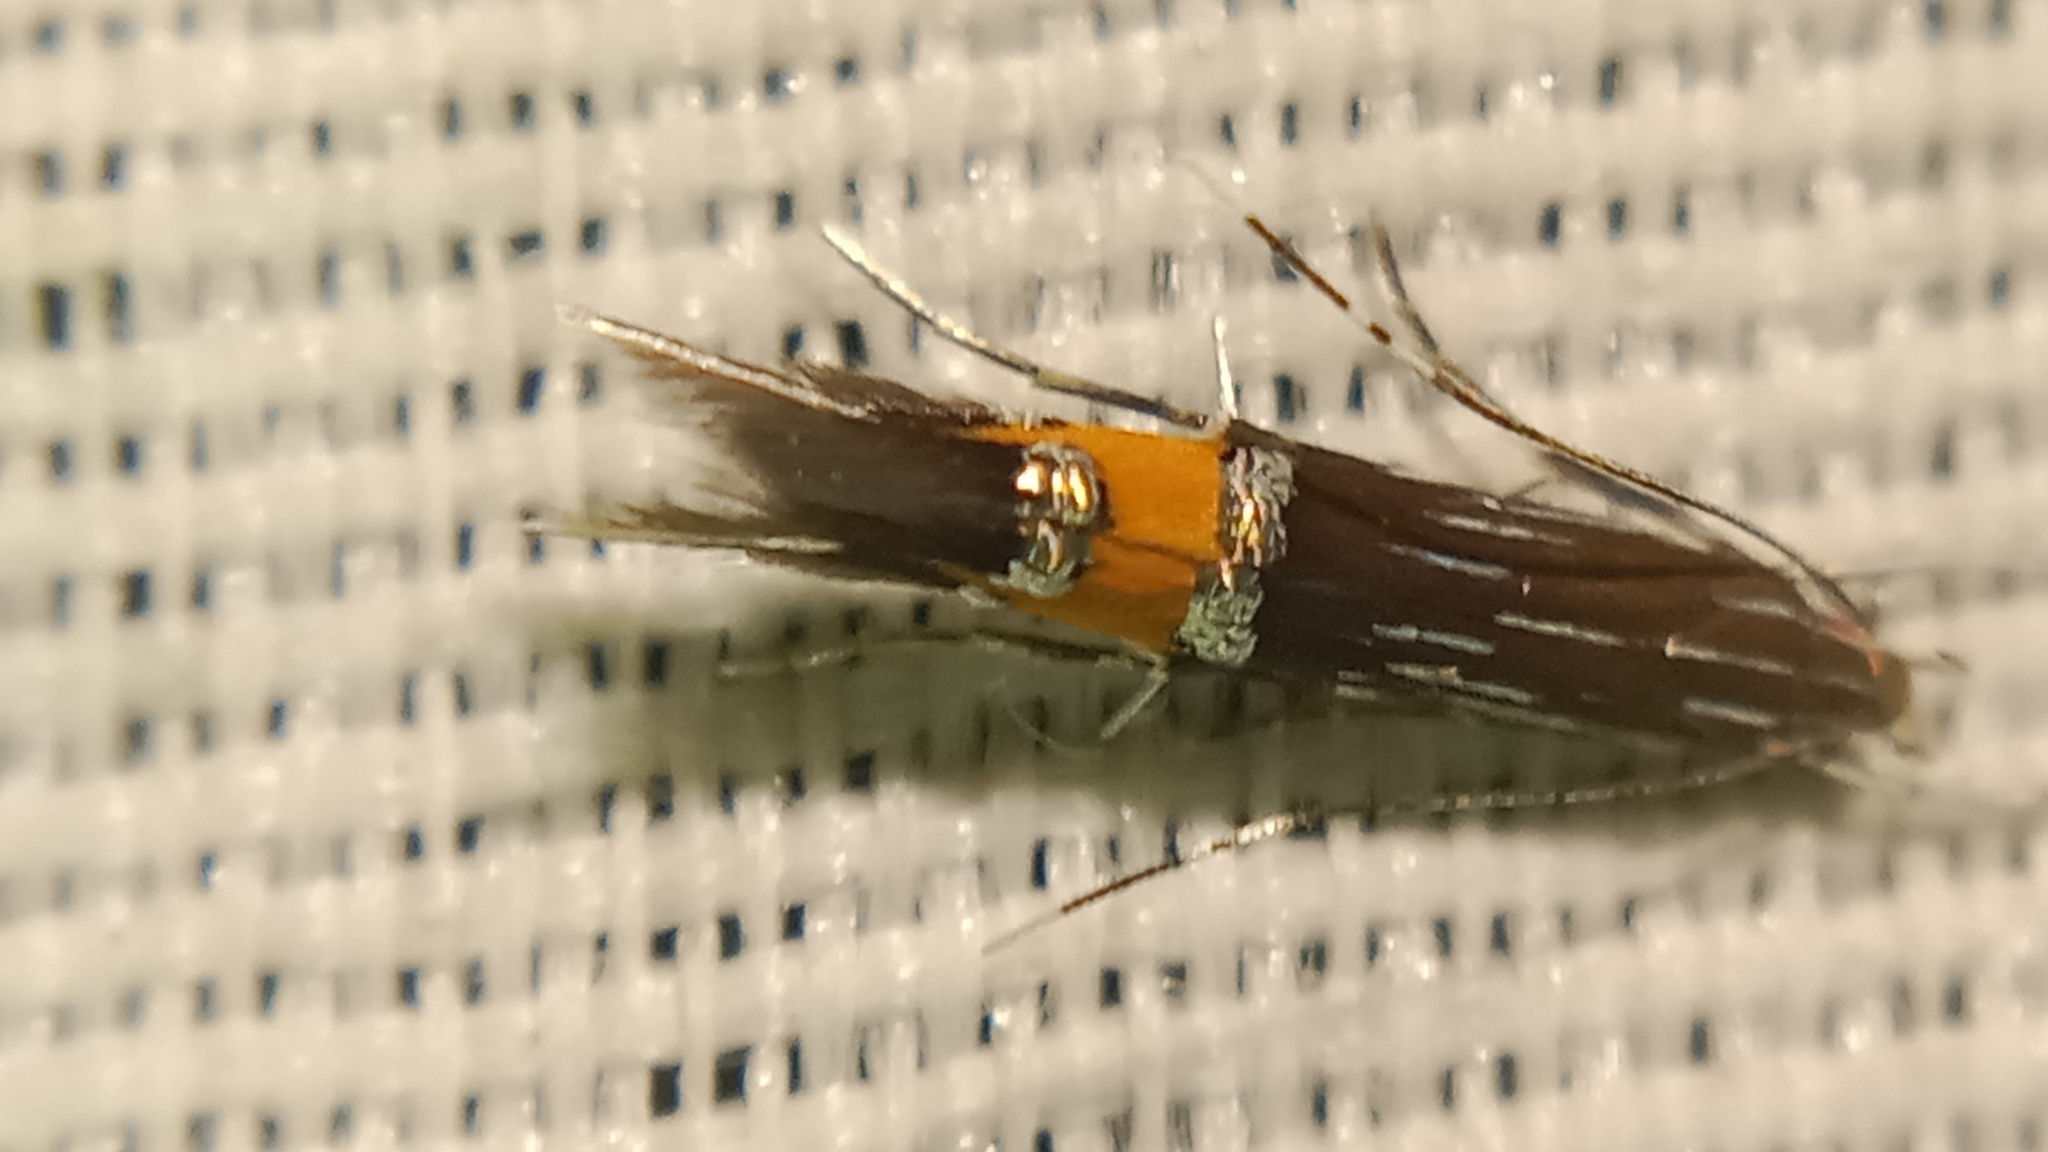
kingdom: Animalia
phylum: Arthropoda
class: Insecta
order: Lepidoptera
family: Cosmopterigidae
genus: Cosmopterix
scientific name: Cosmopterix scribaiella
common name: New marsh cosmet
